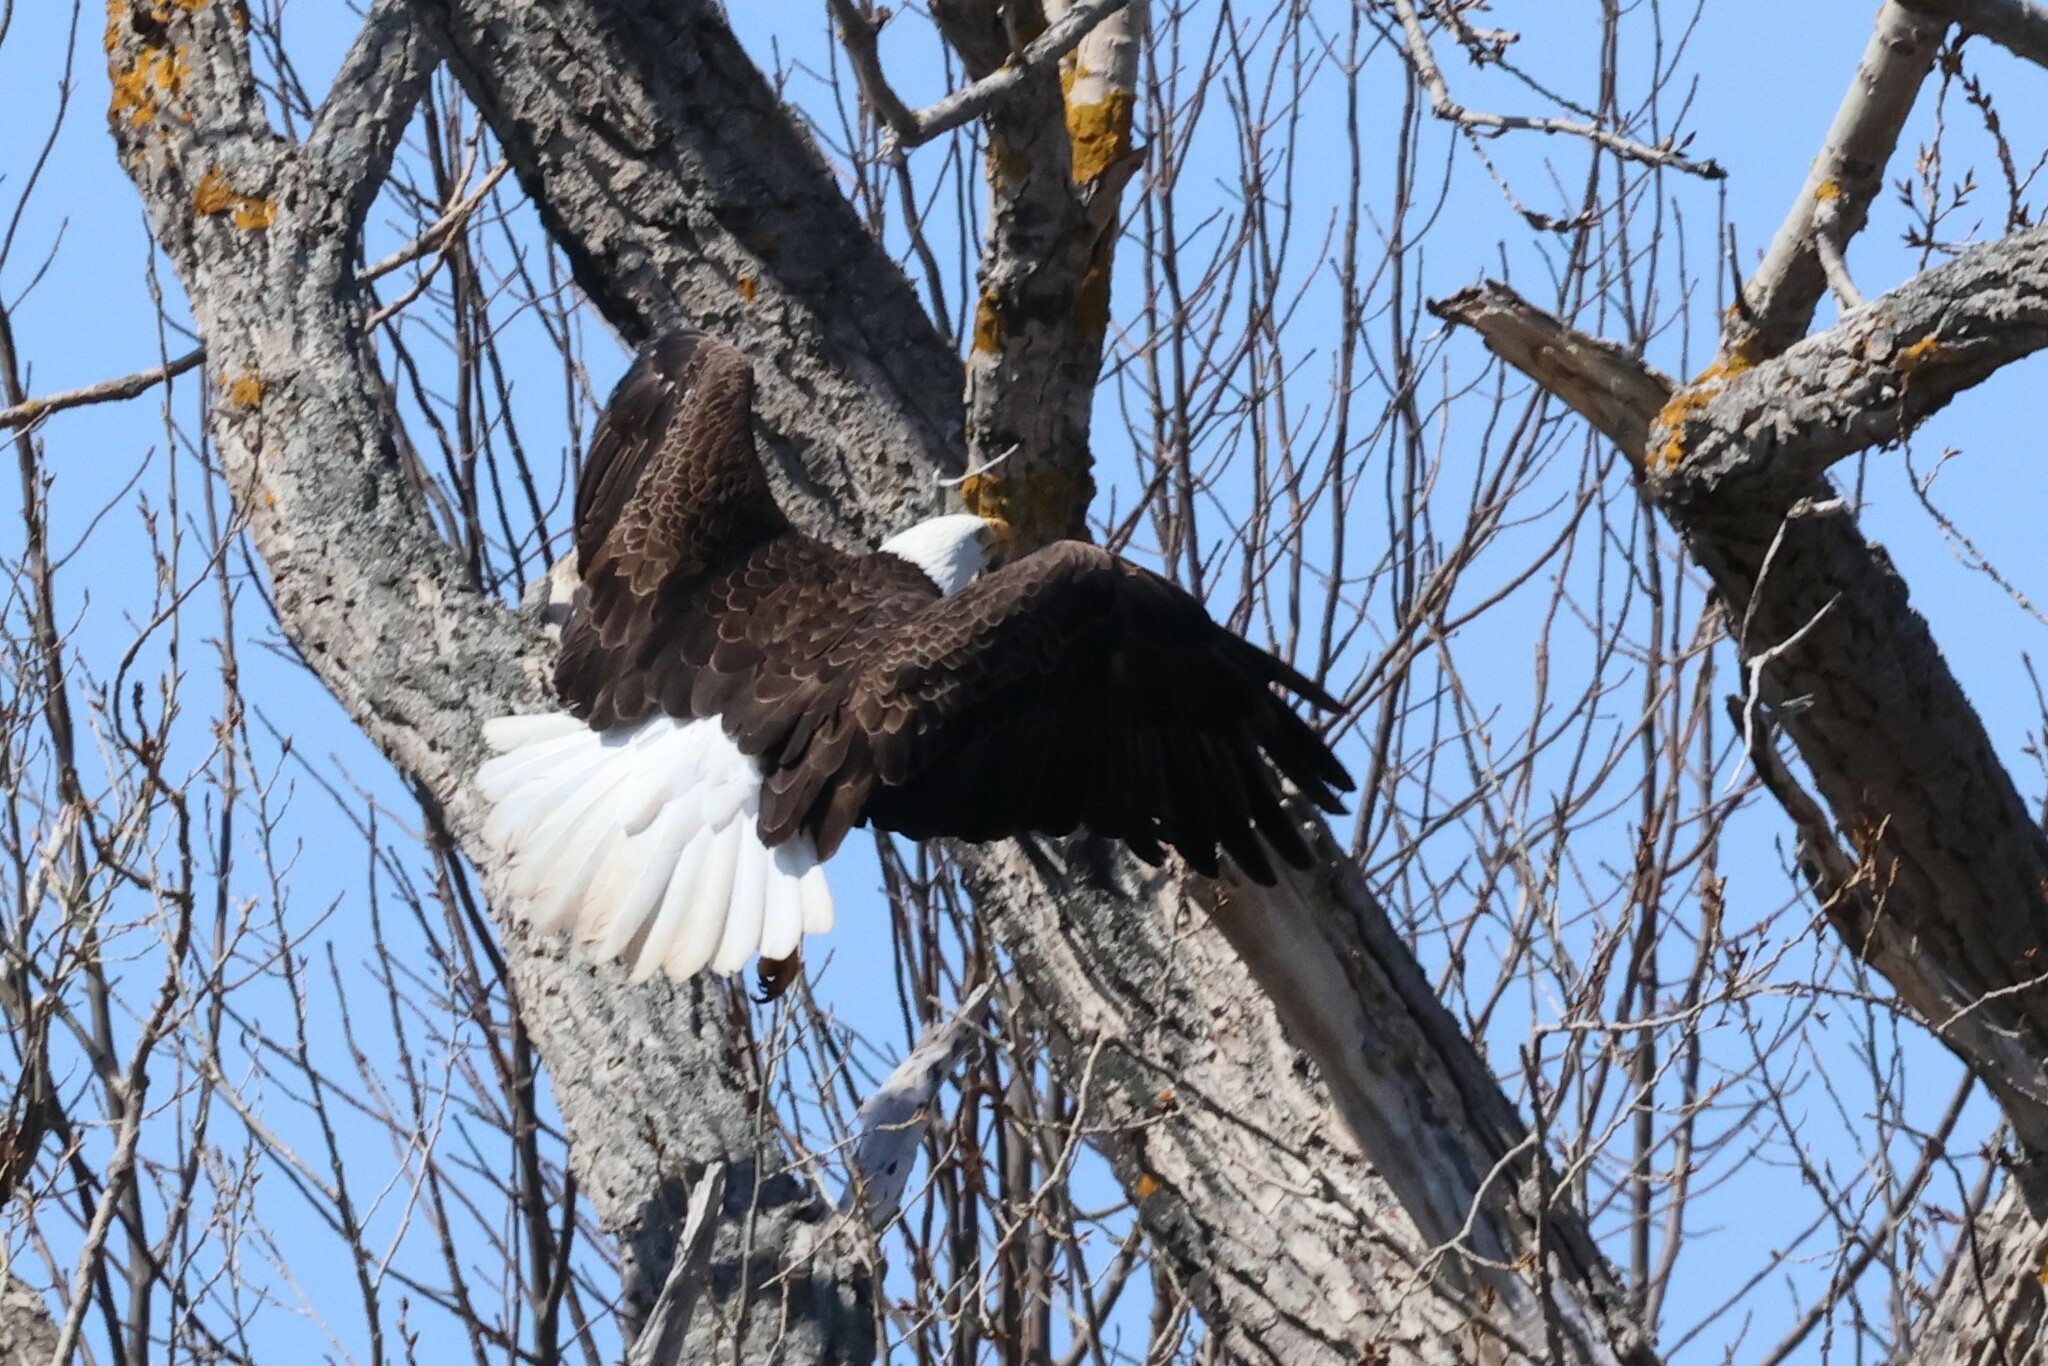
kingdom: Animalia
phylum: Chordata
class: Aves
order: Accipitriformes
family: Accipitridae
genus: Haliaeetus
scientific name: Haliaeetus leucocephalus
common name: Bald eagle
